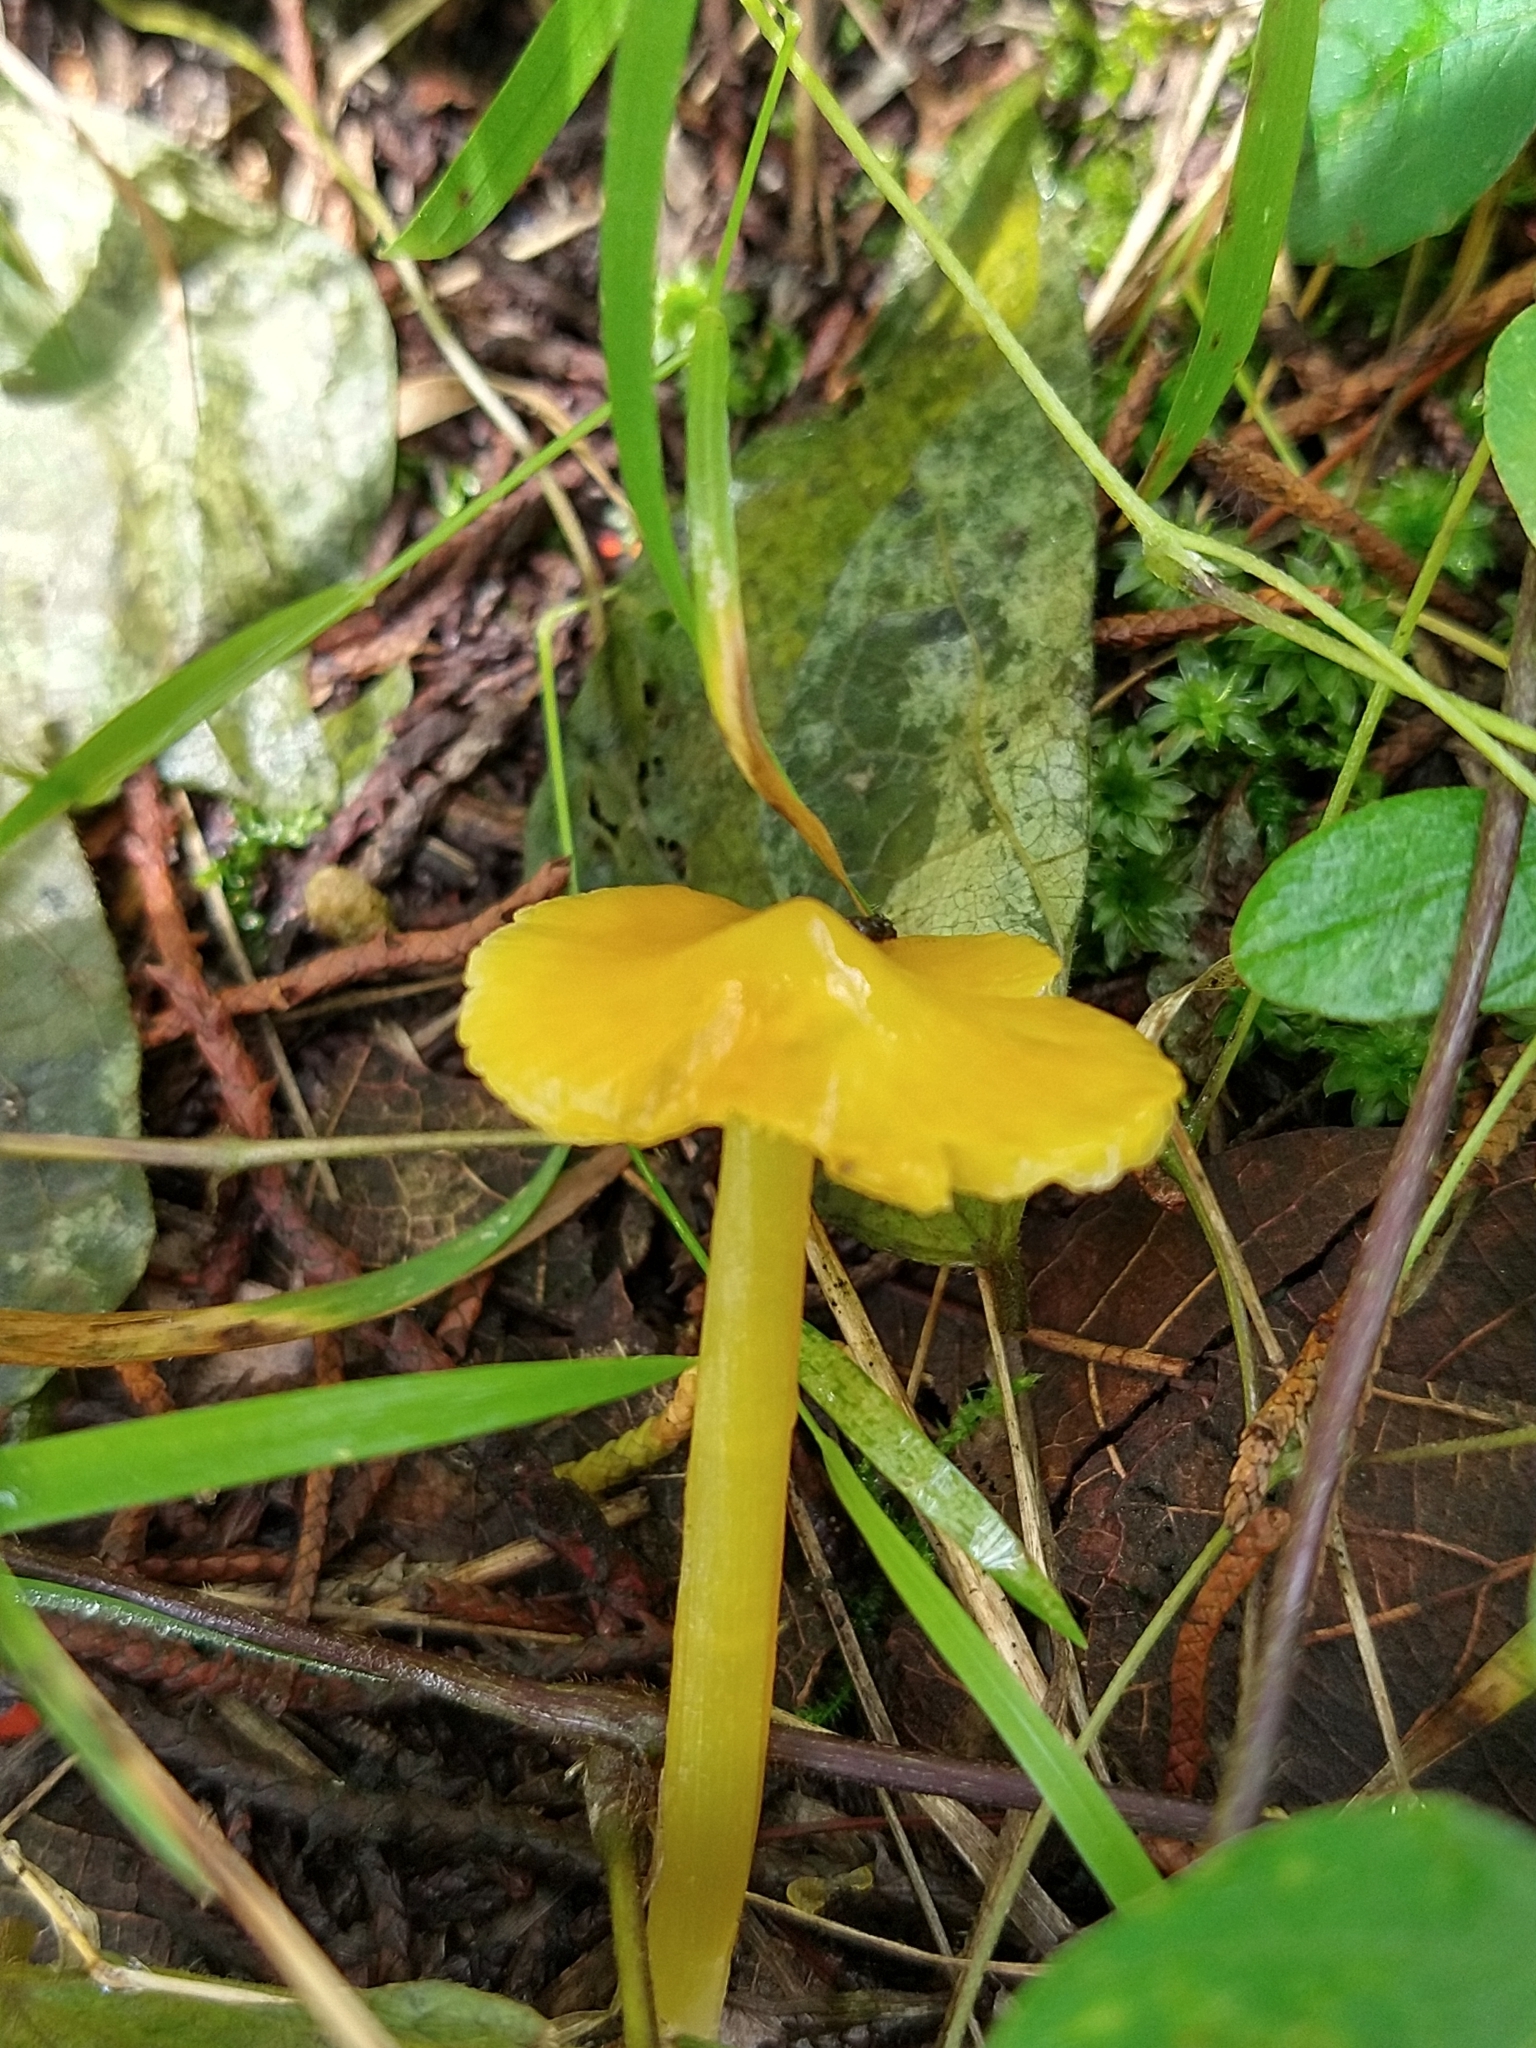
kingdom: Fungi
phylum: Basidiomycota
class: Agaricomycetes
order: Agaricales
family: Hygrophoraceae
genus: Hygrocybe
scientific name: Hygrocybe flavescens
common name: Golden waxy cap
